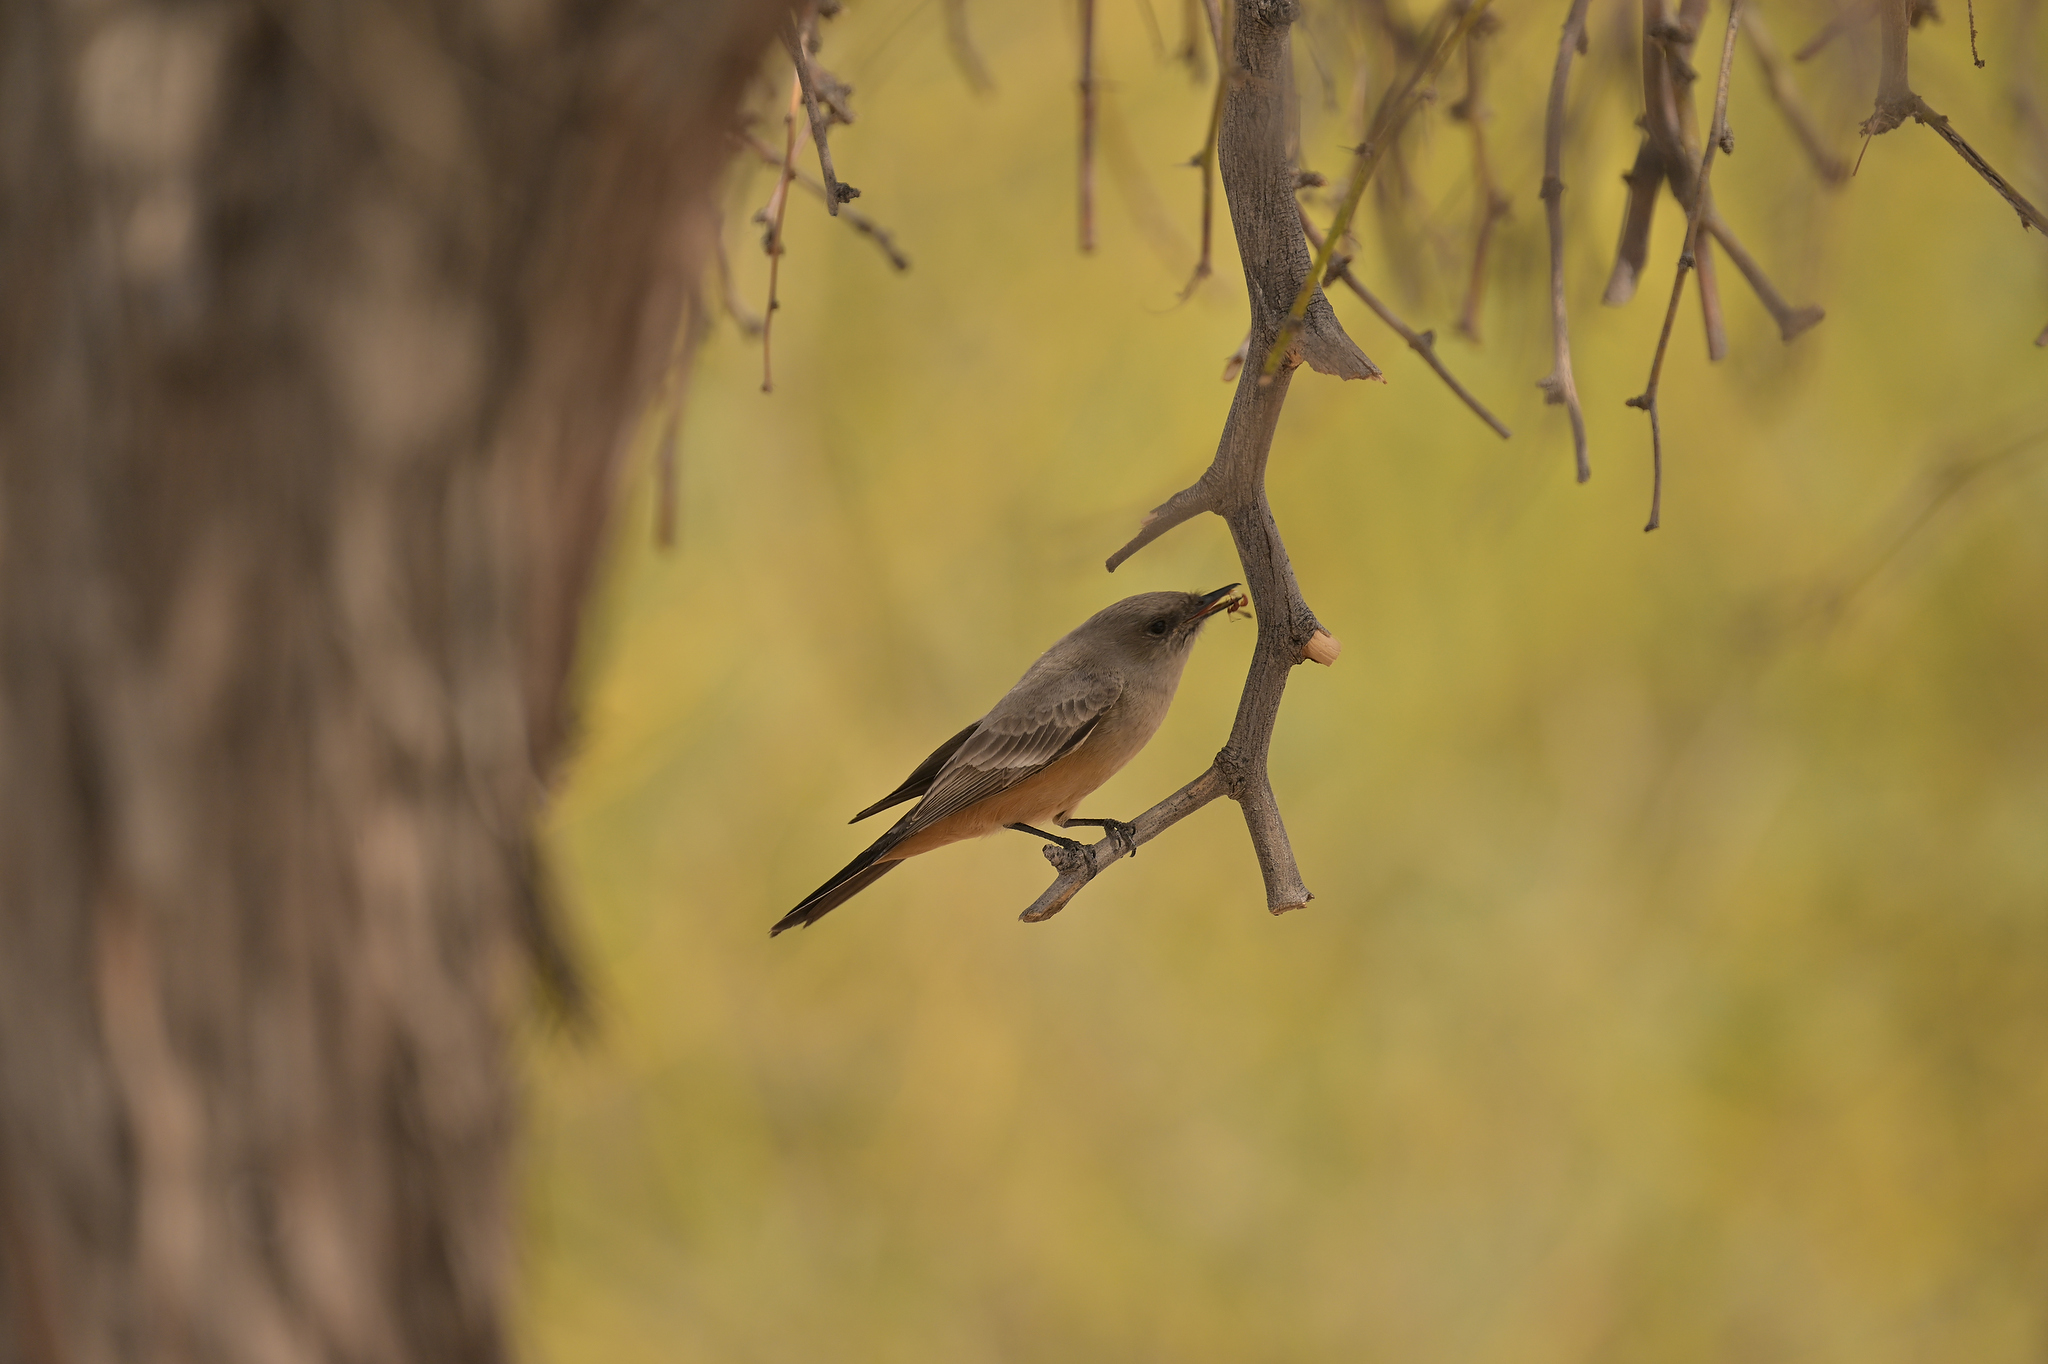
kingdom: Animalia
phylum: Chordata
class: Aves
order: Passeriformes
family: Tyrannidae
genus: Sayornis
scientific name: Sayornis saya
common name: Say's phoebe
